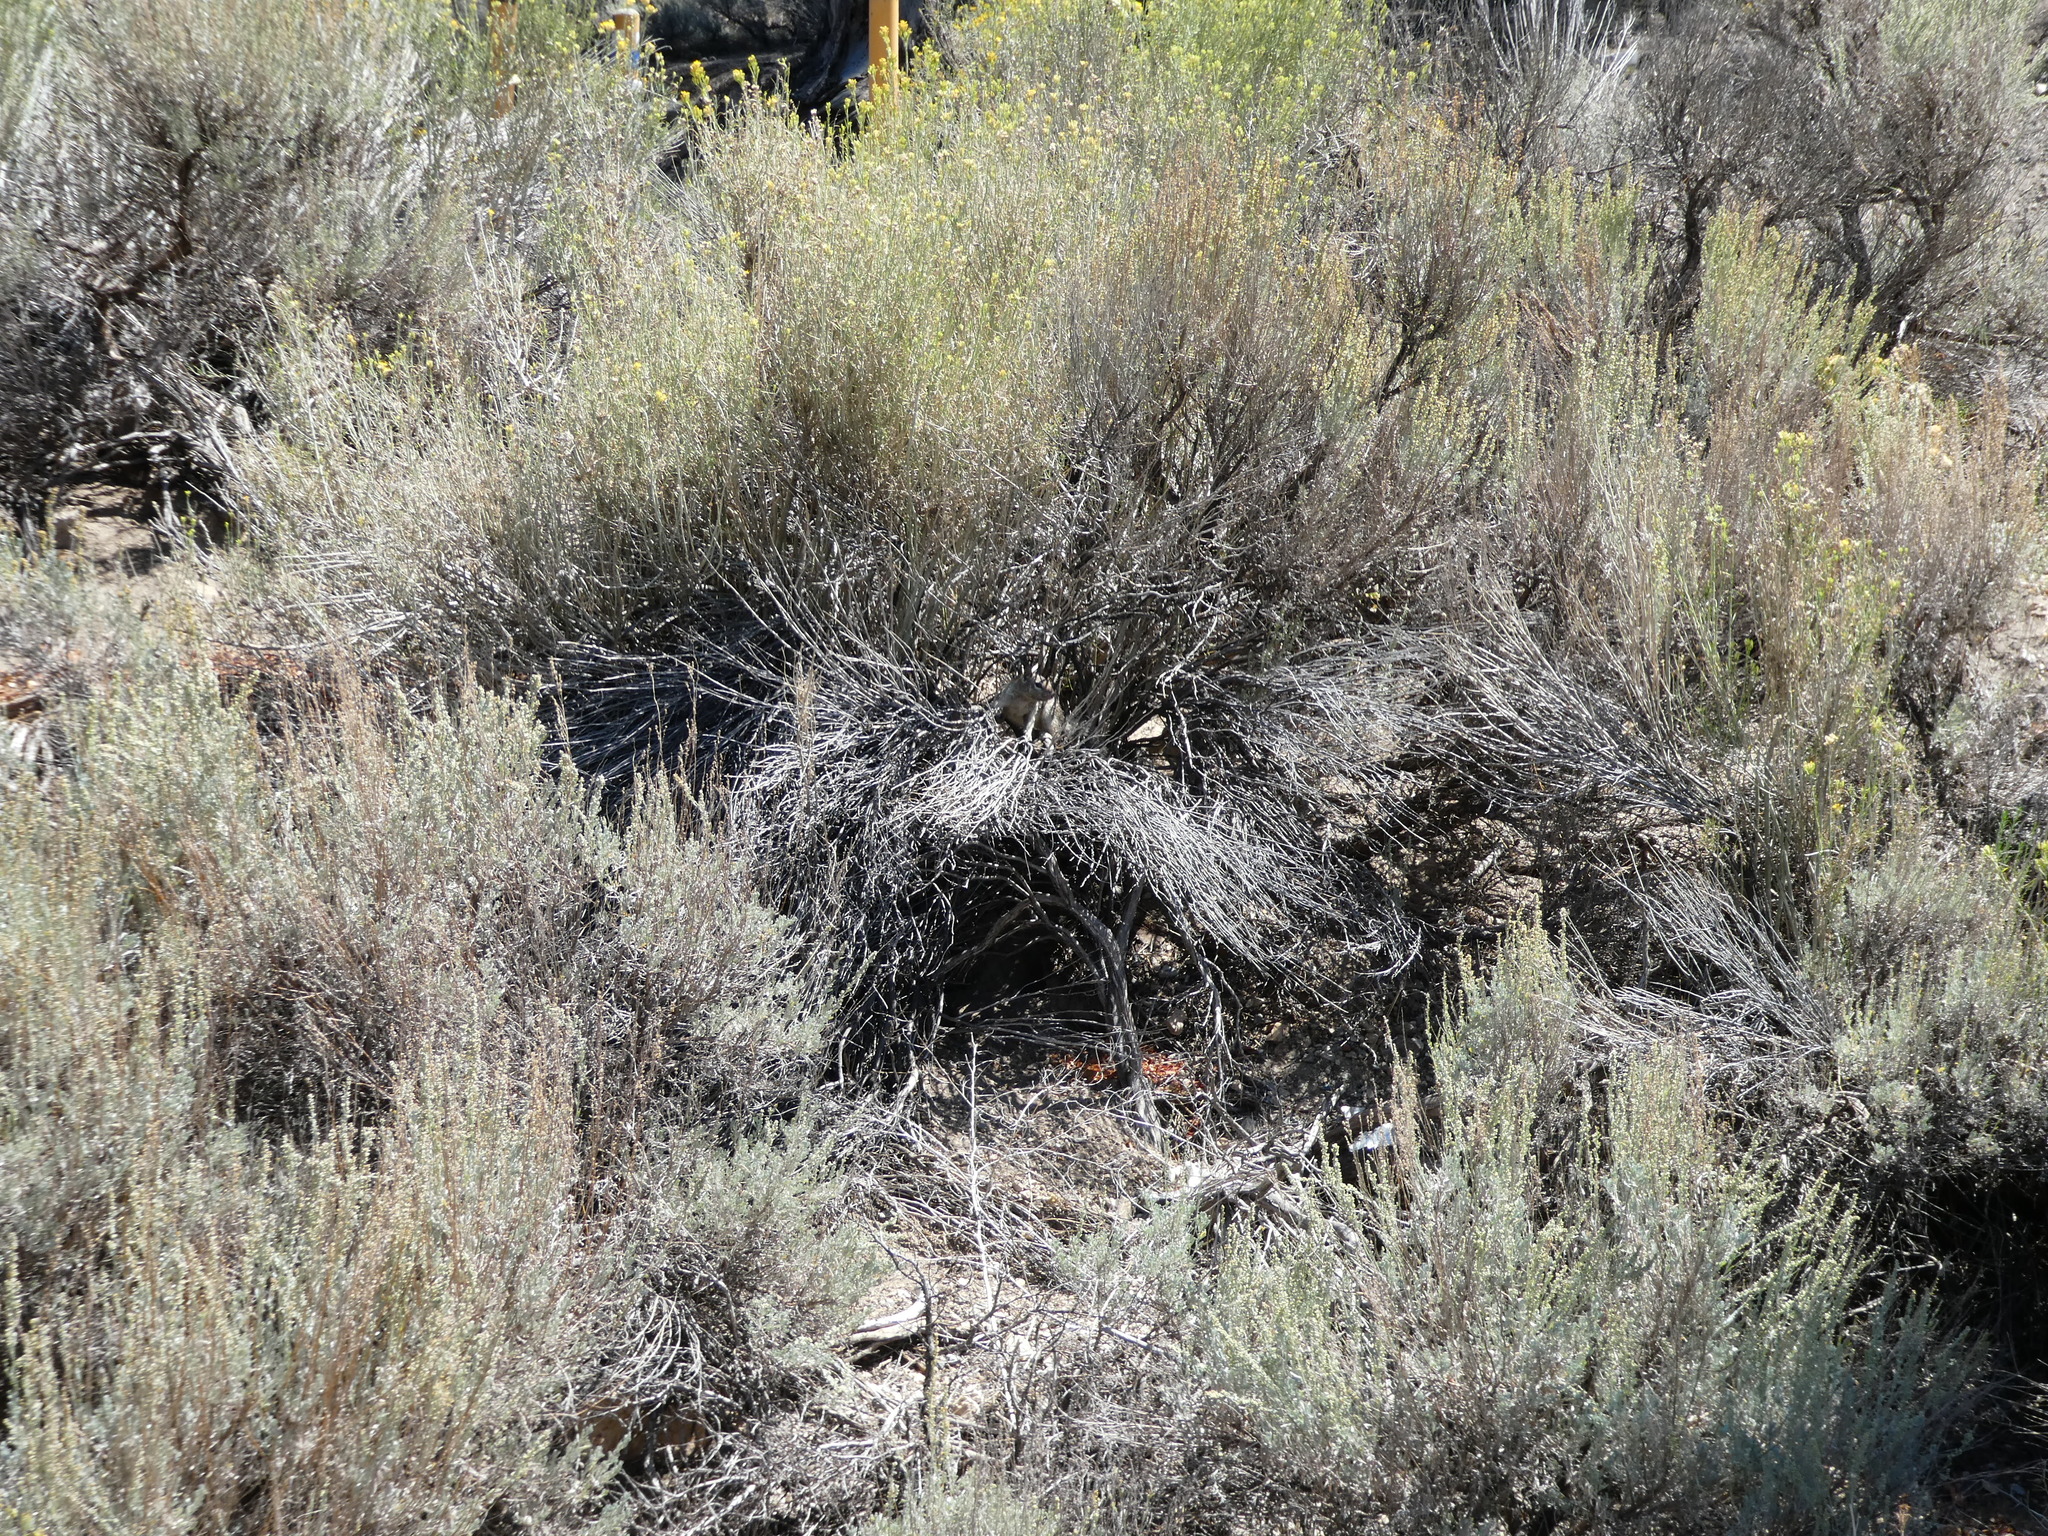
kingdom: Animalia
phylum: Chordata
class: Mammalia
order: Rodentia
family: Sciuridae
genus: Otospermophilus
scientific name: Otospermophilus beecheyi
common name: California ground squirrel
